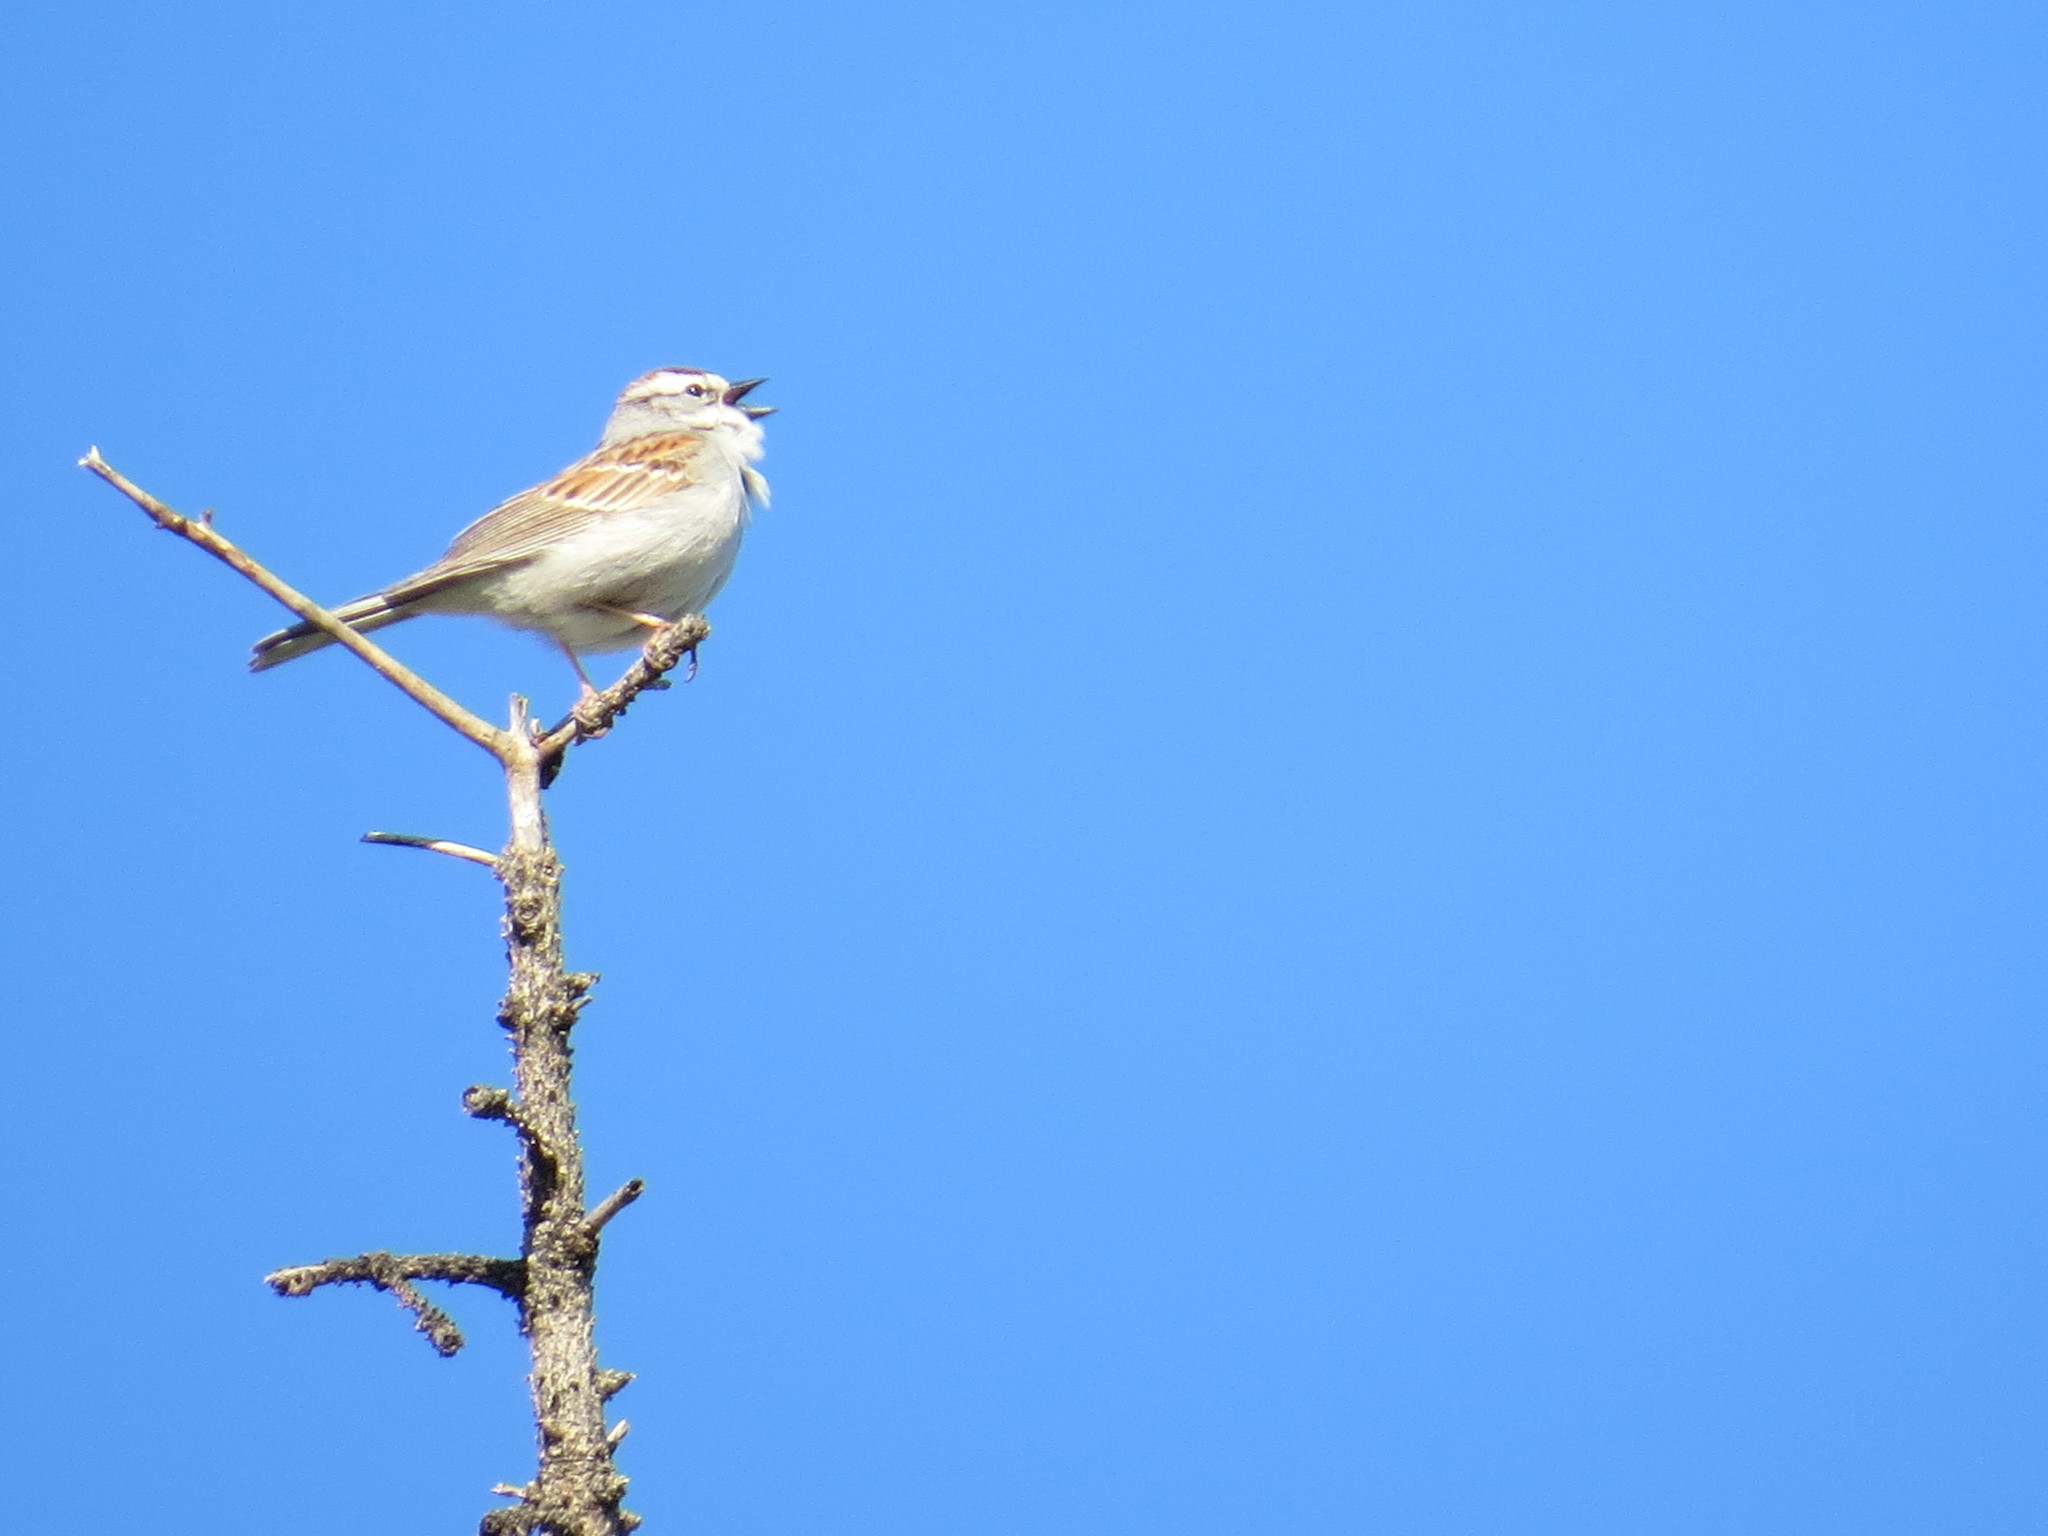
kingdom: Animalia
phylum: Chordata
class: Aves
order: Passeriformes
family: Passerellidae
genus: Spizella
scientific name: Spizella passerina
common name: Chipping sparrow
